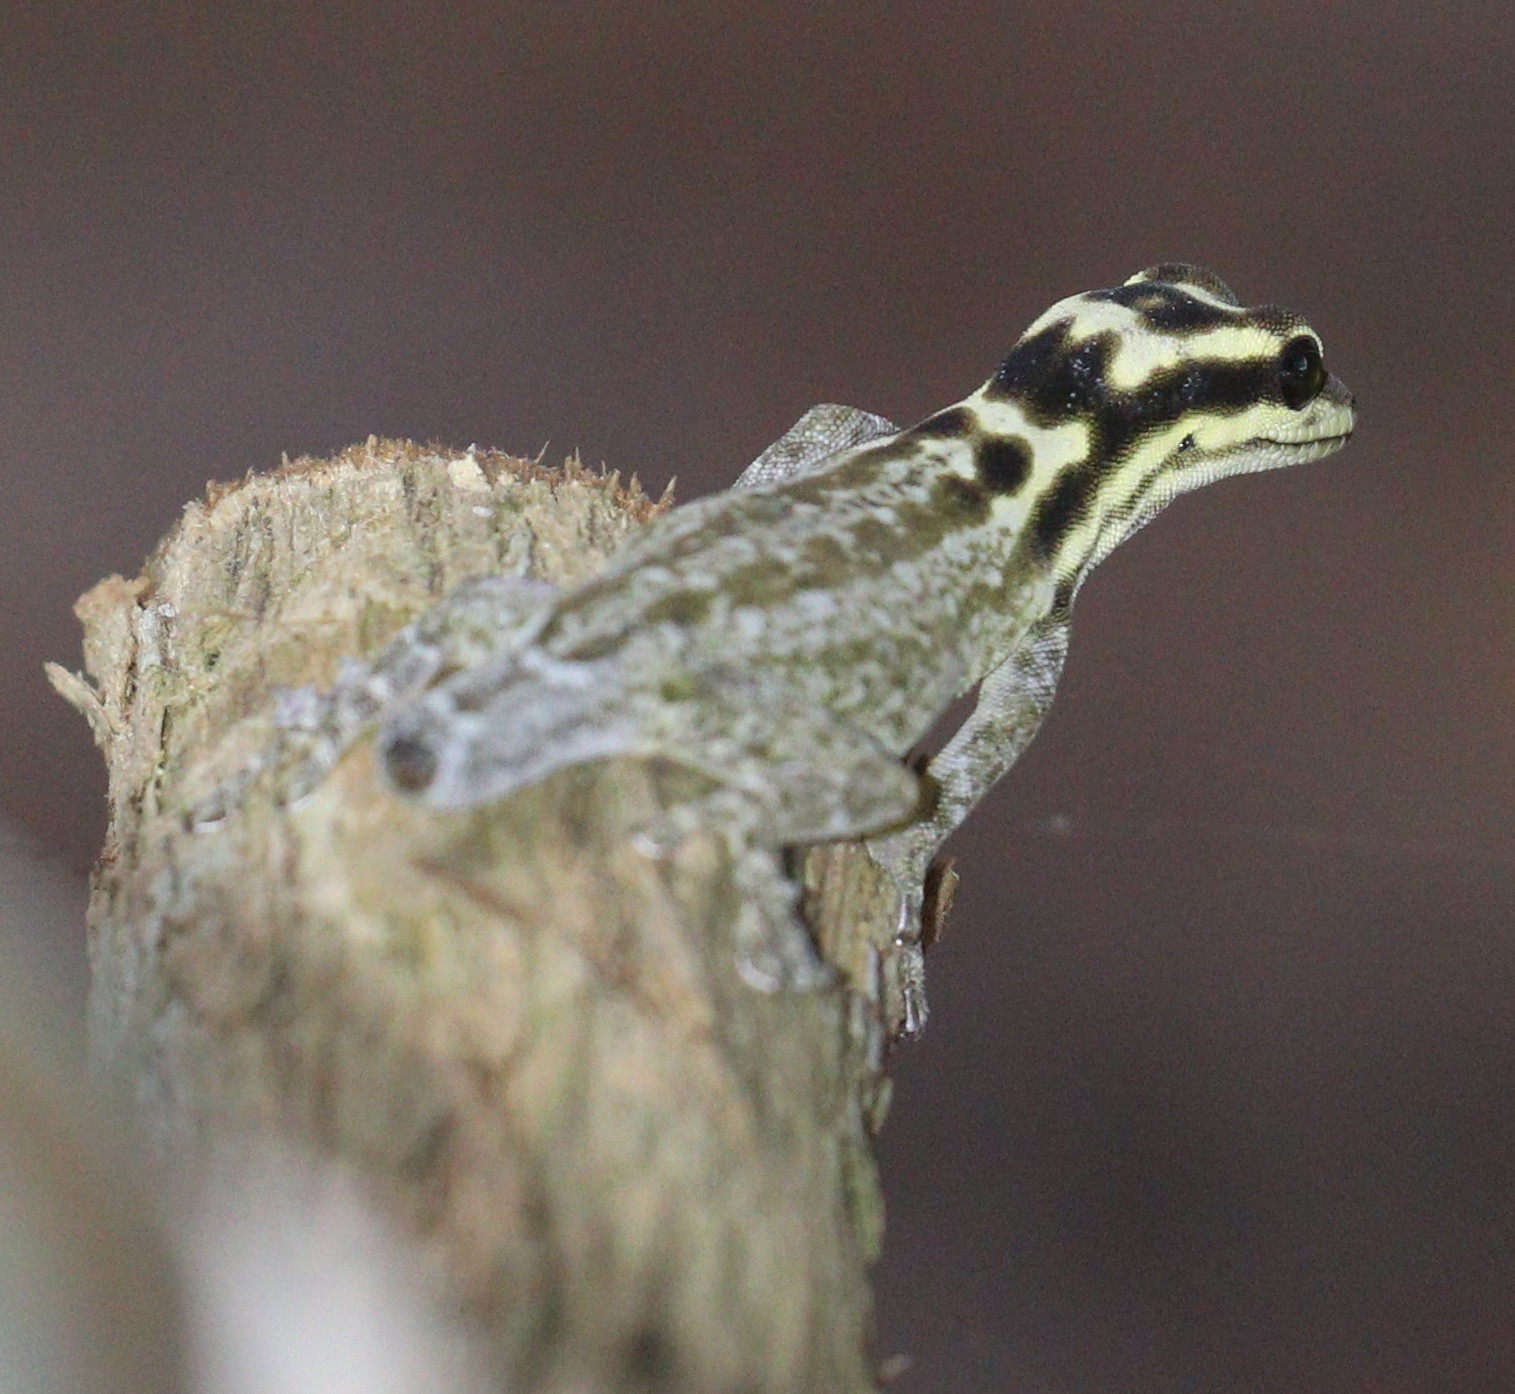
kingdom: Animalia
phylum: Chordata
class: Squamata
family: Gekkonidae
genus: Lygodactylus
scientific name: Lygodactylus mombasicus
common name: White-headed dwarf gecko
